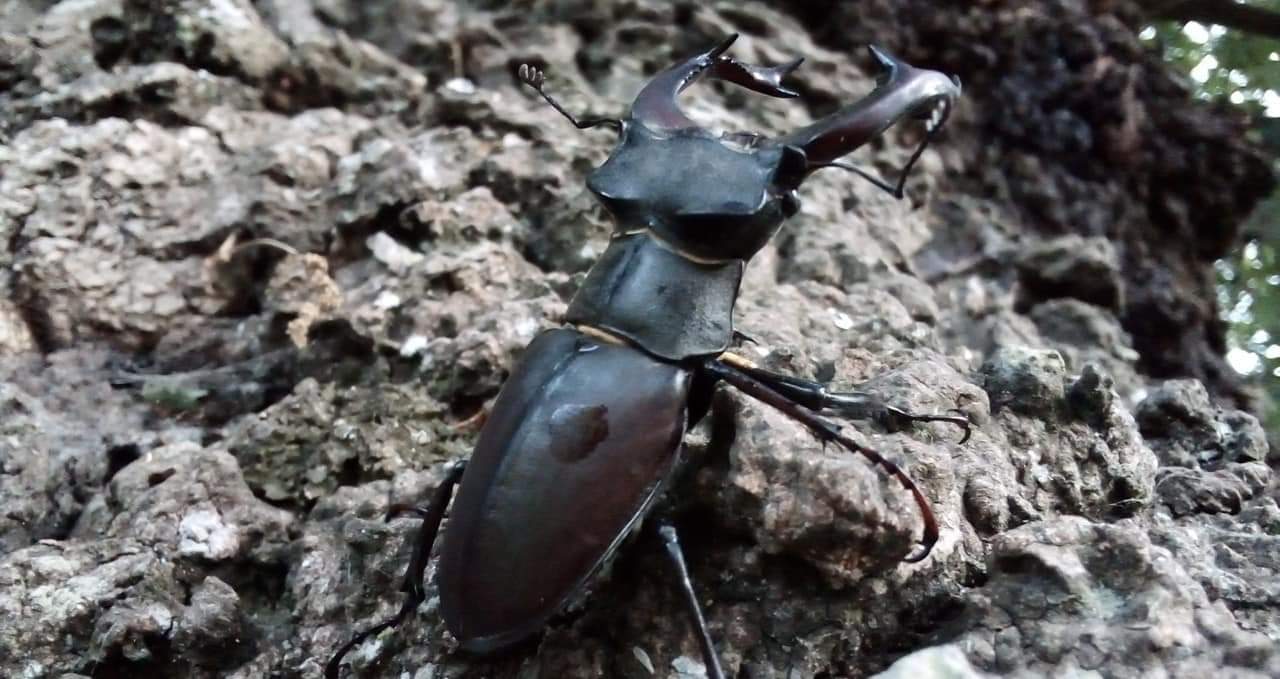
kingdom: Animalia
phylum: Arthropoda
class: Insecta
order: Coleoptera
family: Lucanidae
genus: Lucanus
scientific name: Lucanus cervus
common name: Stag beetle
